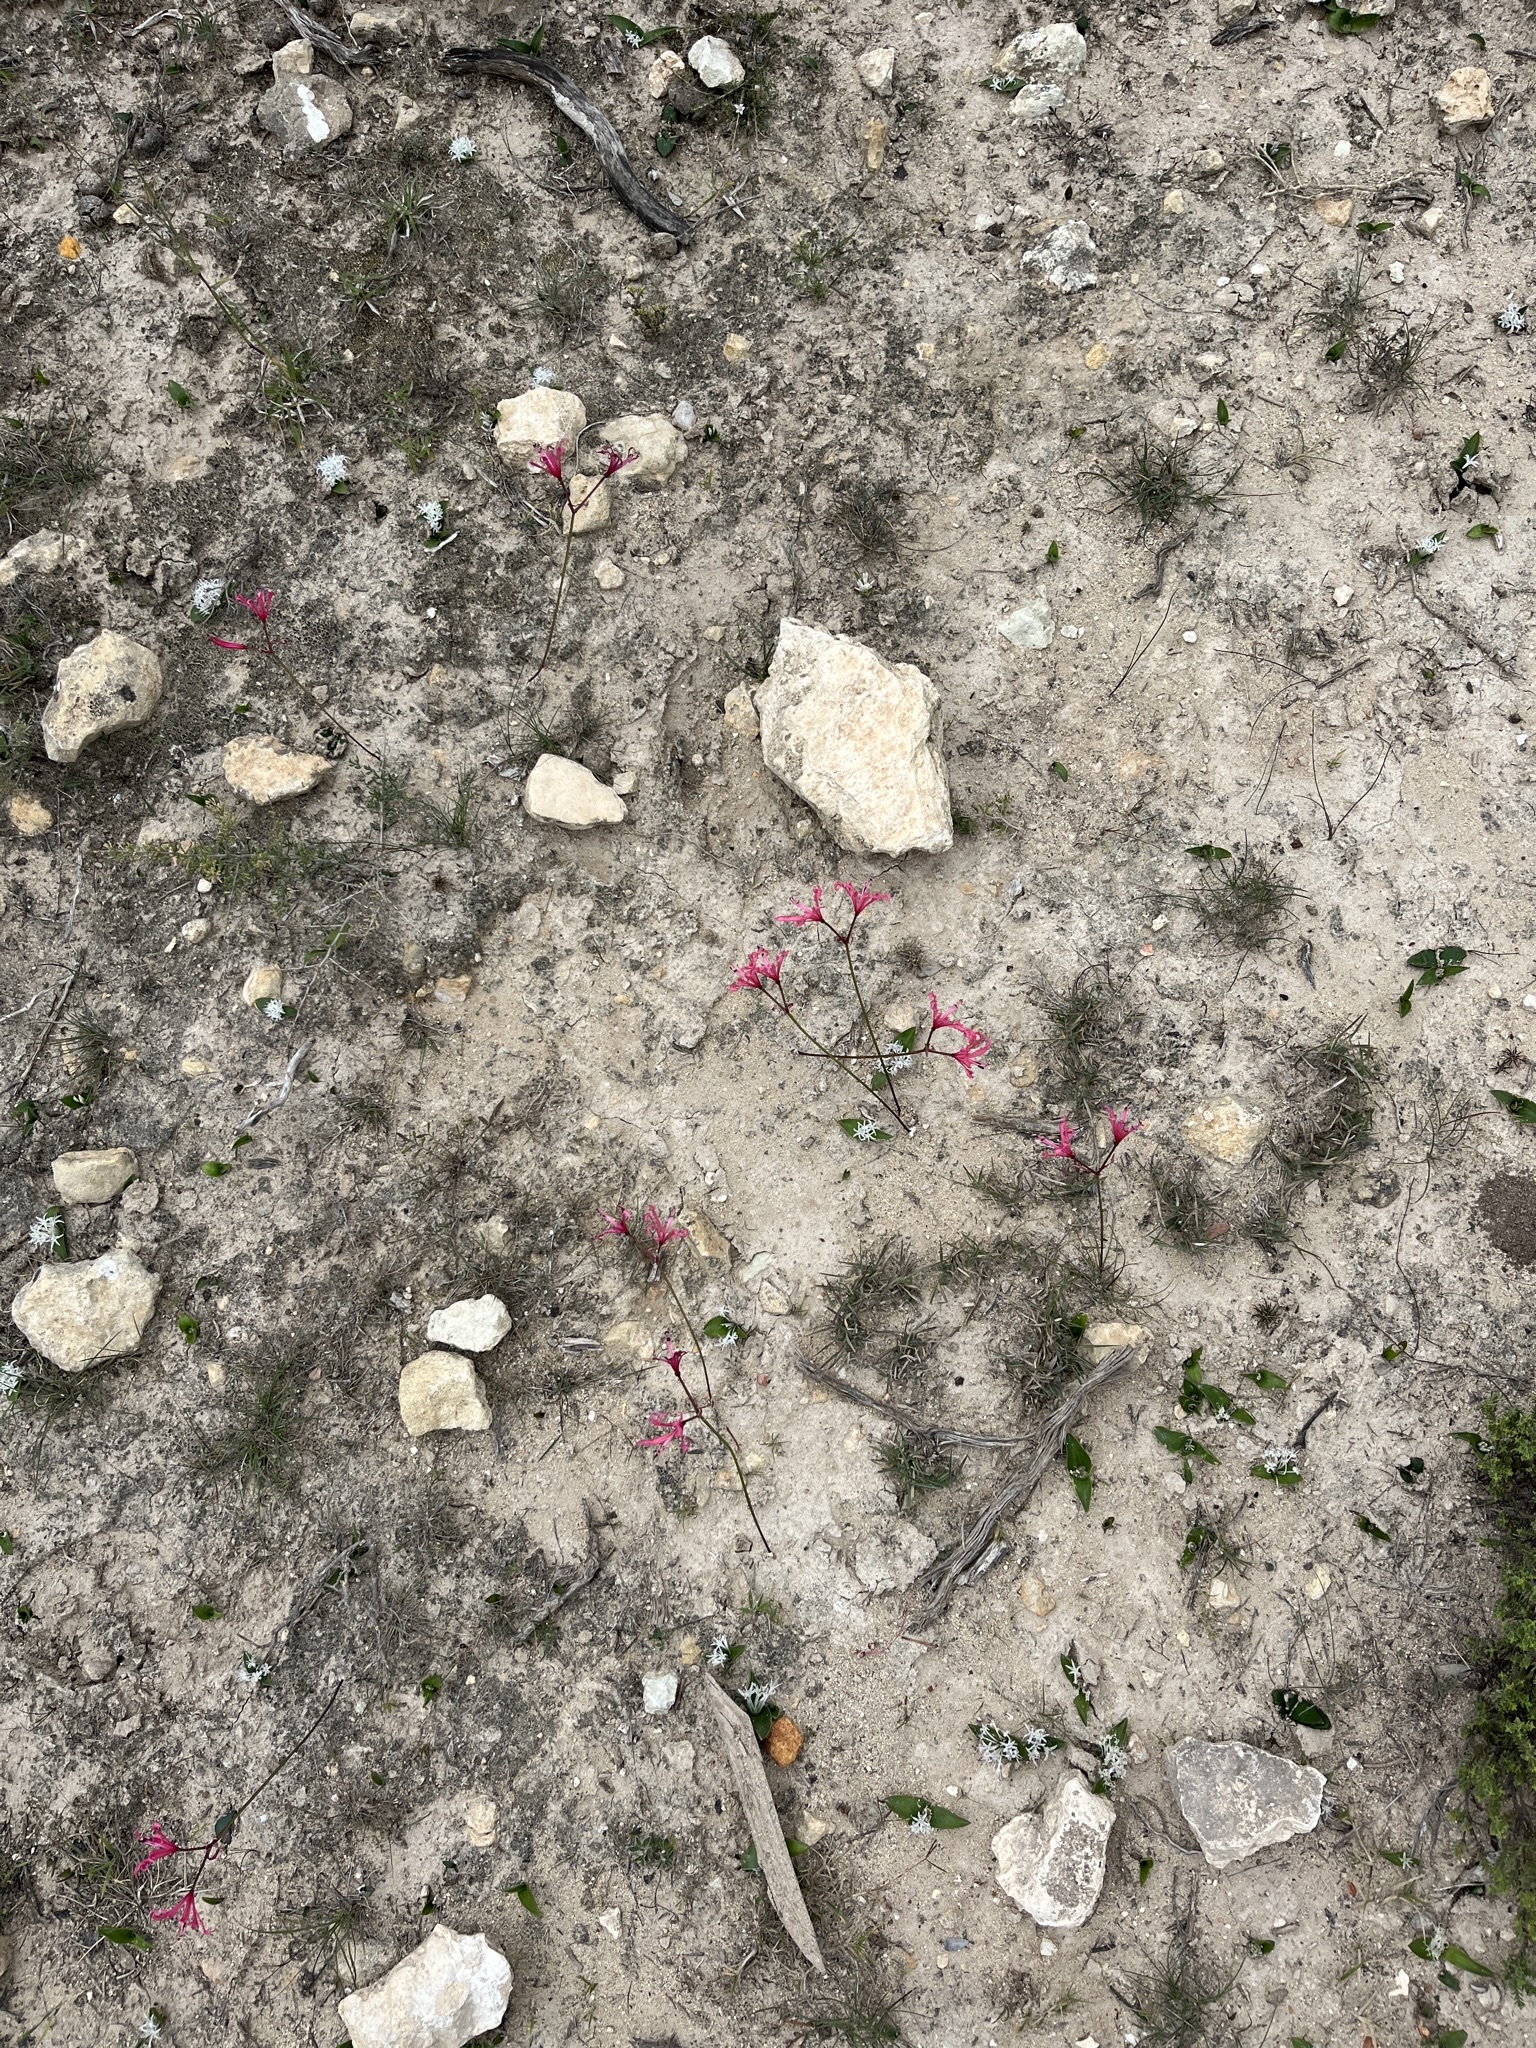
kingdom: Plantae
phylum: Tracheophyta
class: Liliopsida
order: Asparagales
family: Amaryllidaceae
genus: Nerine
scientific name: Nerine humilis
